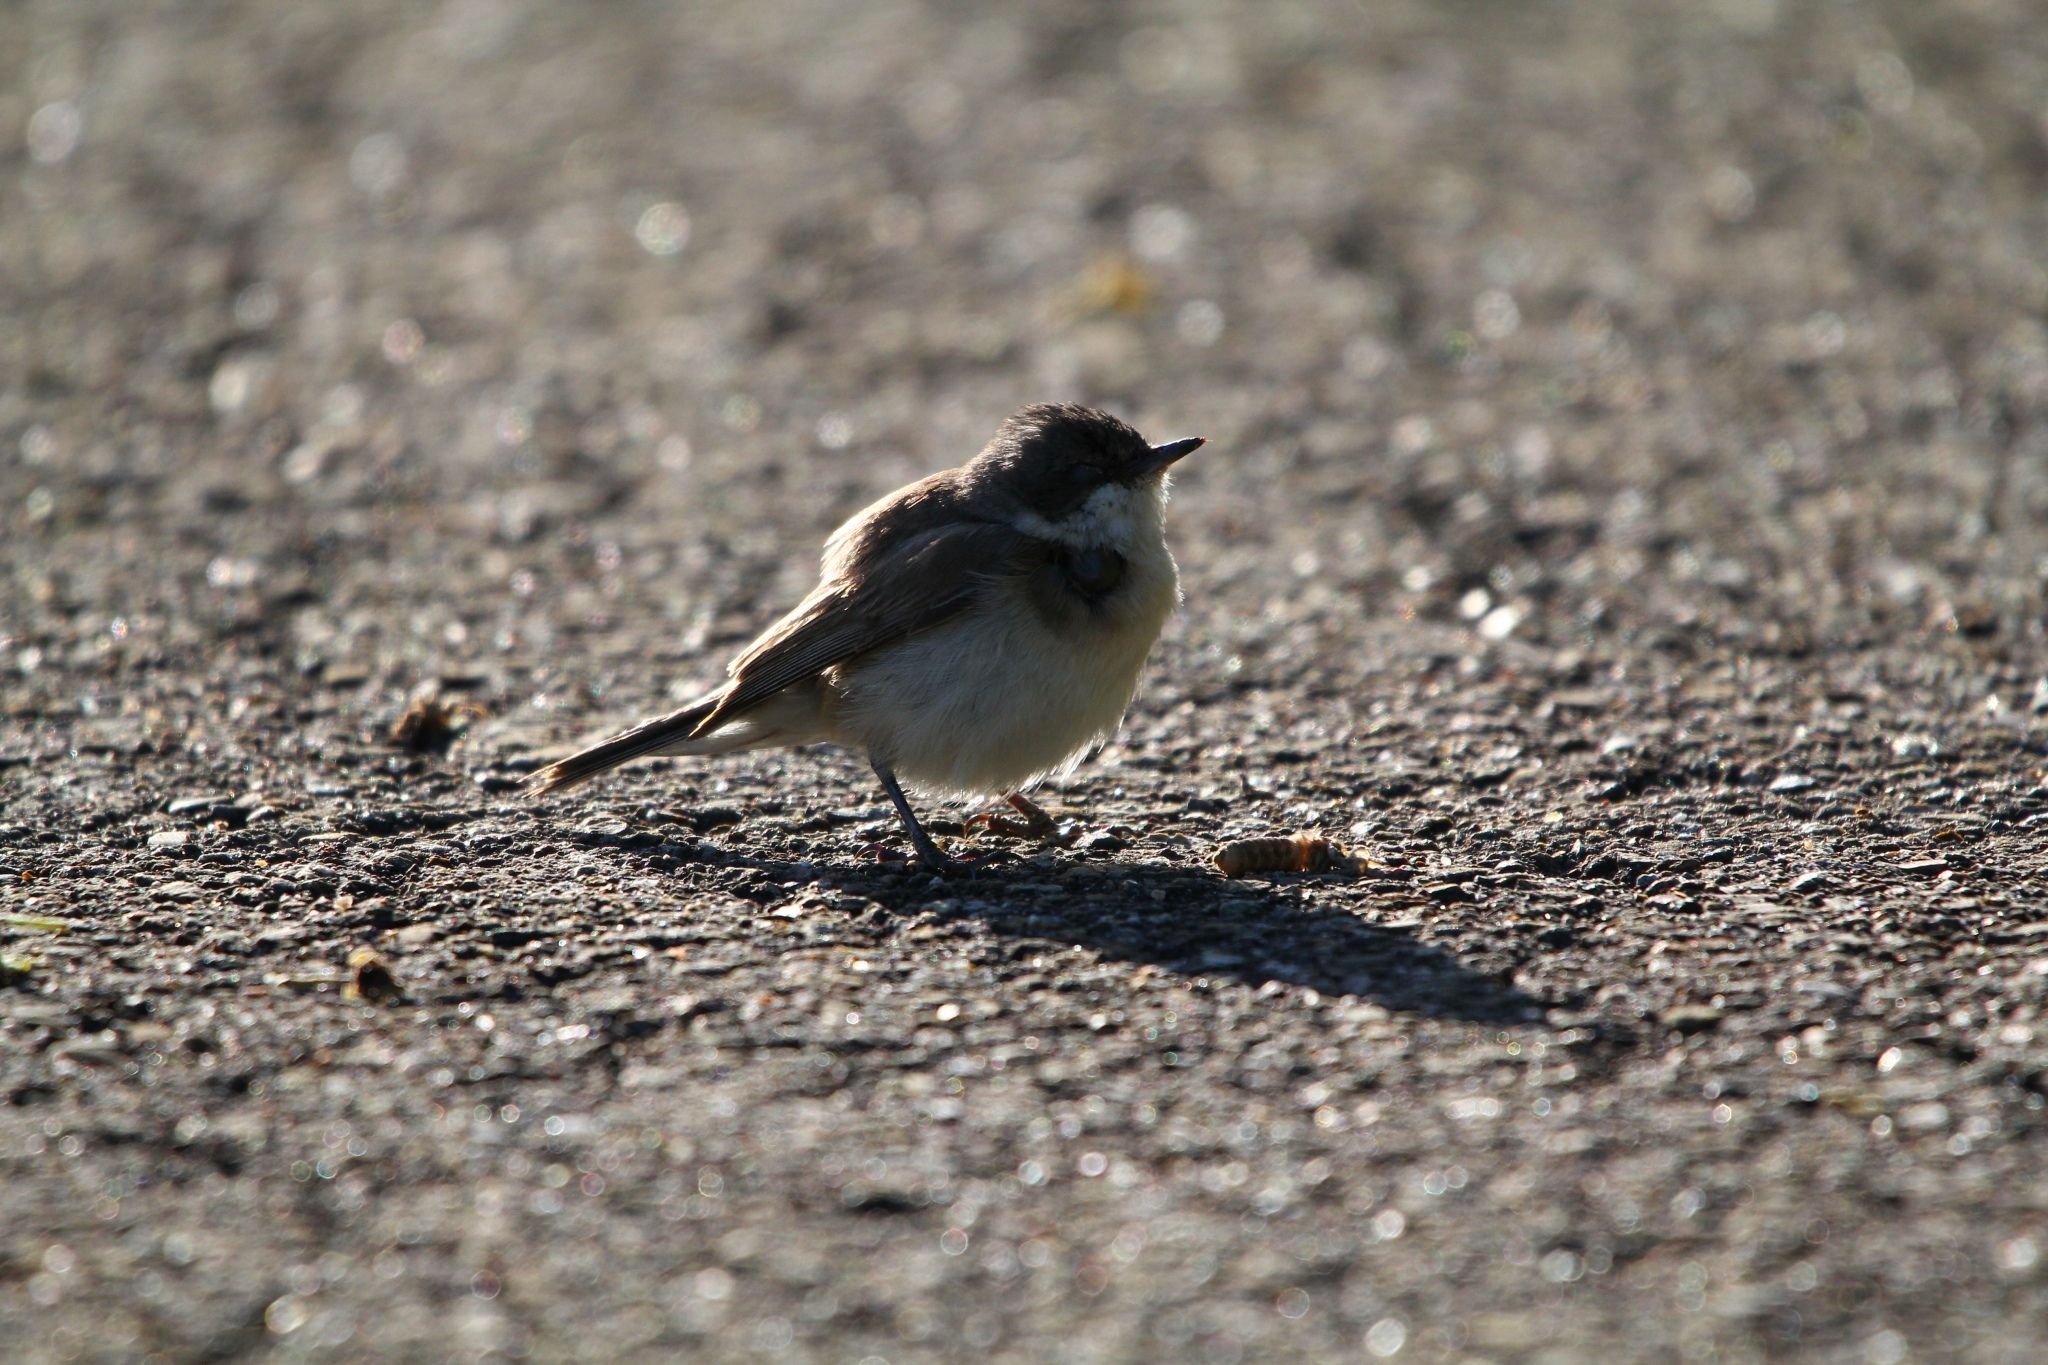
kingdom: Animalia
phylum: Chordata
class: Aves
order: Passeriformes
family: Sylviidae
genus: Sylvia
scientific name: Sylvia curruca
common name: Lesser whitethroat
